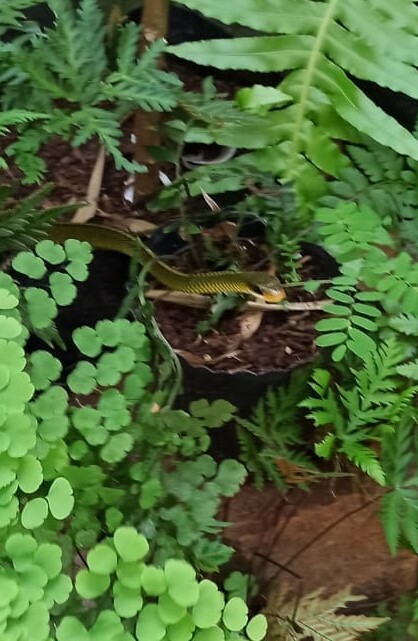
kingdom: Animalia
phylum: Chordata
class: Squamata
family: Colubridae
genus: Chironius
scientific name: Chironius gouveai
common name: Gouvea’s sipo
